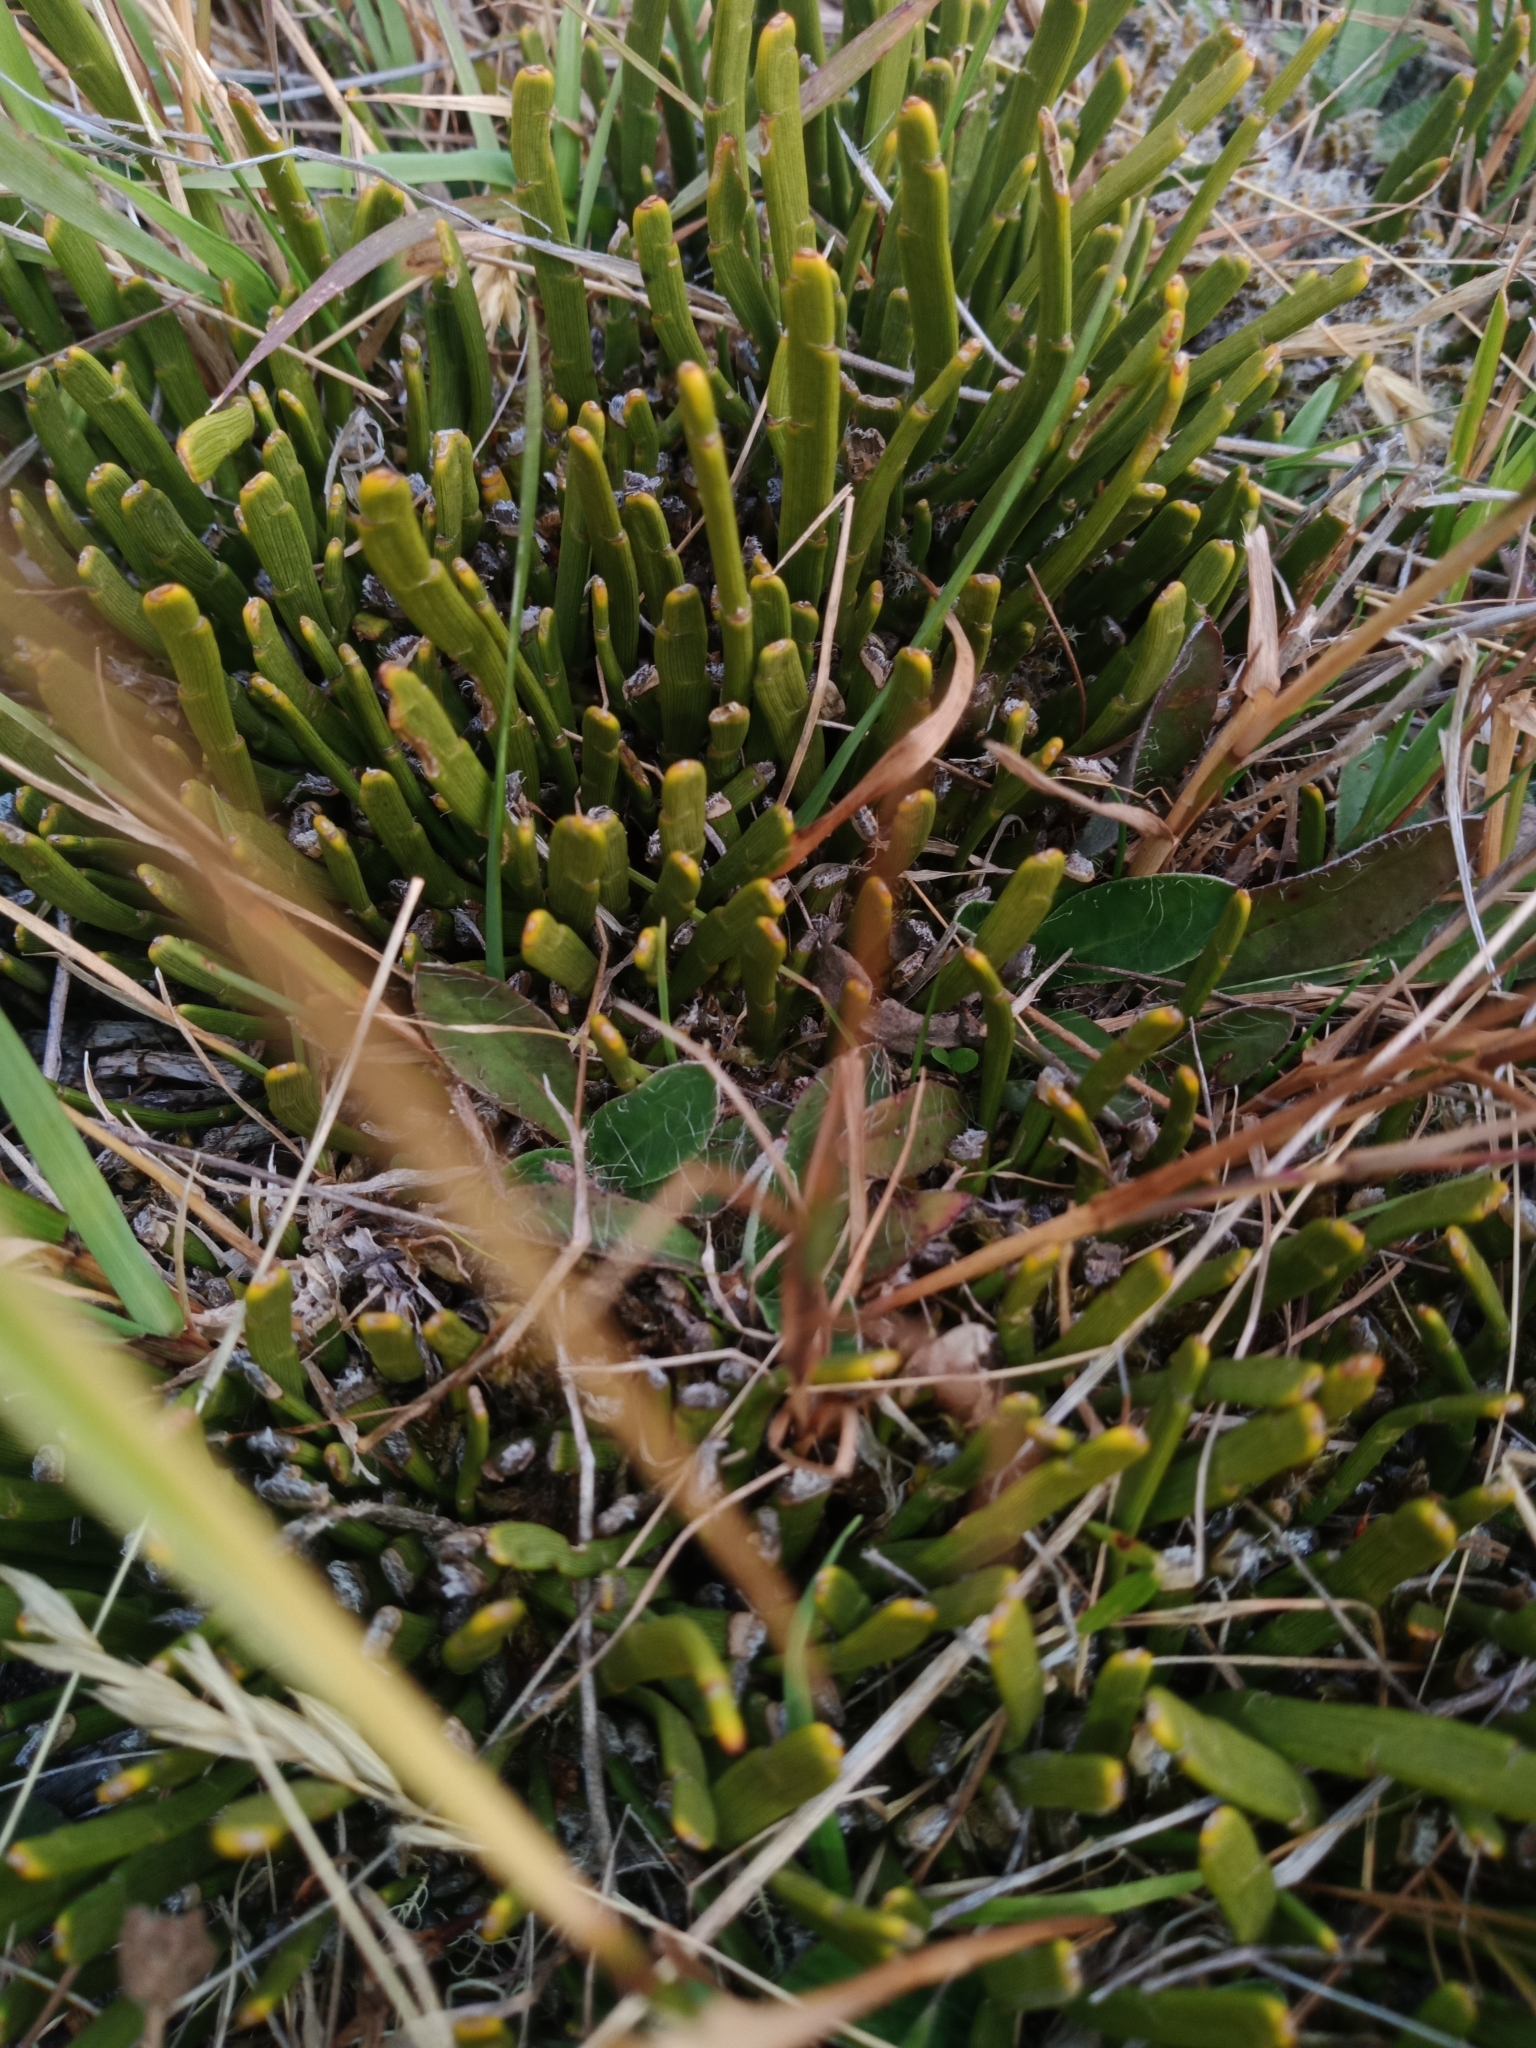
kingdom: Plantae
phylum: Tracheophyta
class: Magnoliopsida
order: Fabales
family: Fabaceae
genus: Carmichaelia
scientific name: Carmichaelia monroi
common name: Stout dwarf broom
